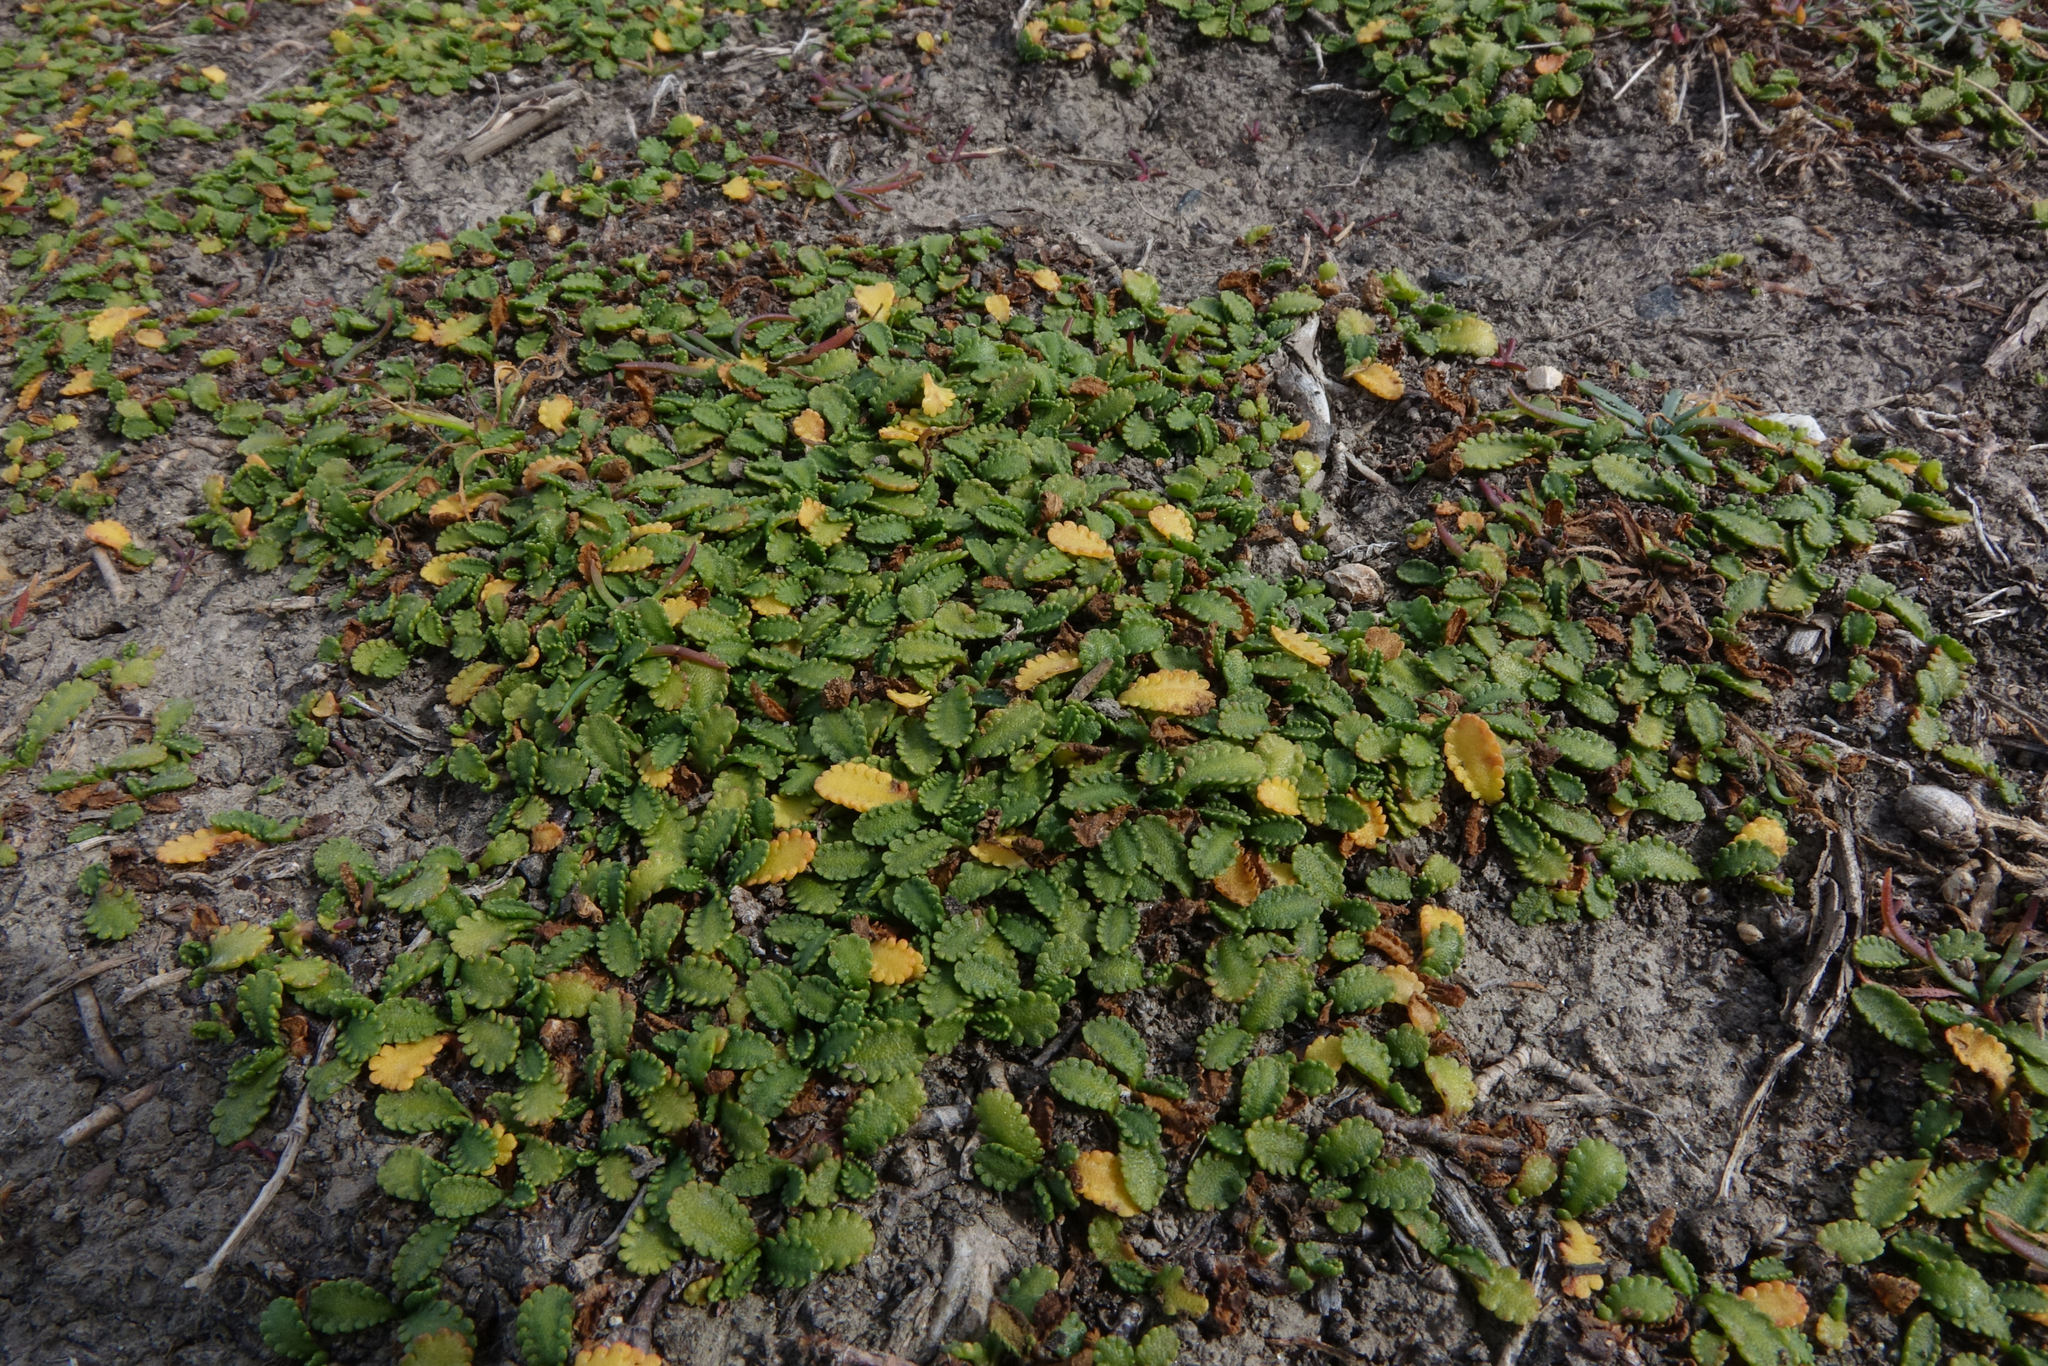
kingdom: Plantae
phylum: Tracheophyta
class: Magnoliopsida
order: Asterales
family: Asteraceae
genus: Leptinella
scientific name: Leptinella dioica
